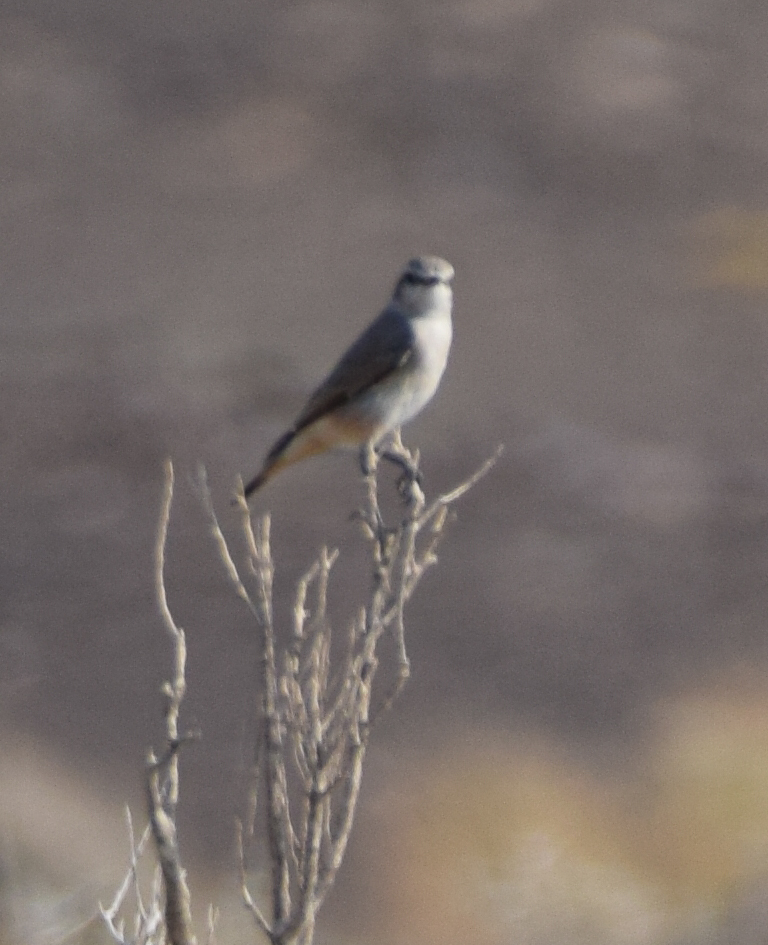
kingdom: Animalia
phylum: Chordata
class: Aves
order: Passeriformes
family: Muscicapidae
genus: Oenanthe
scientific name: Oenanthe chrysopygia
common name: Red-tailed wheatear
